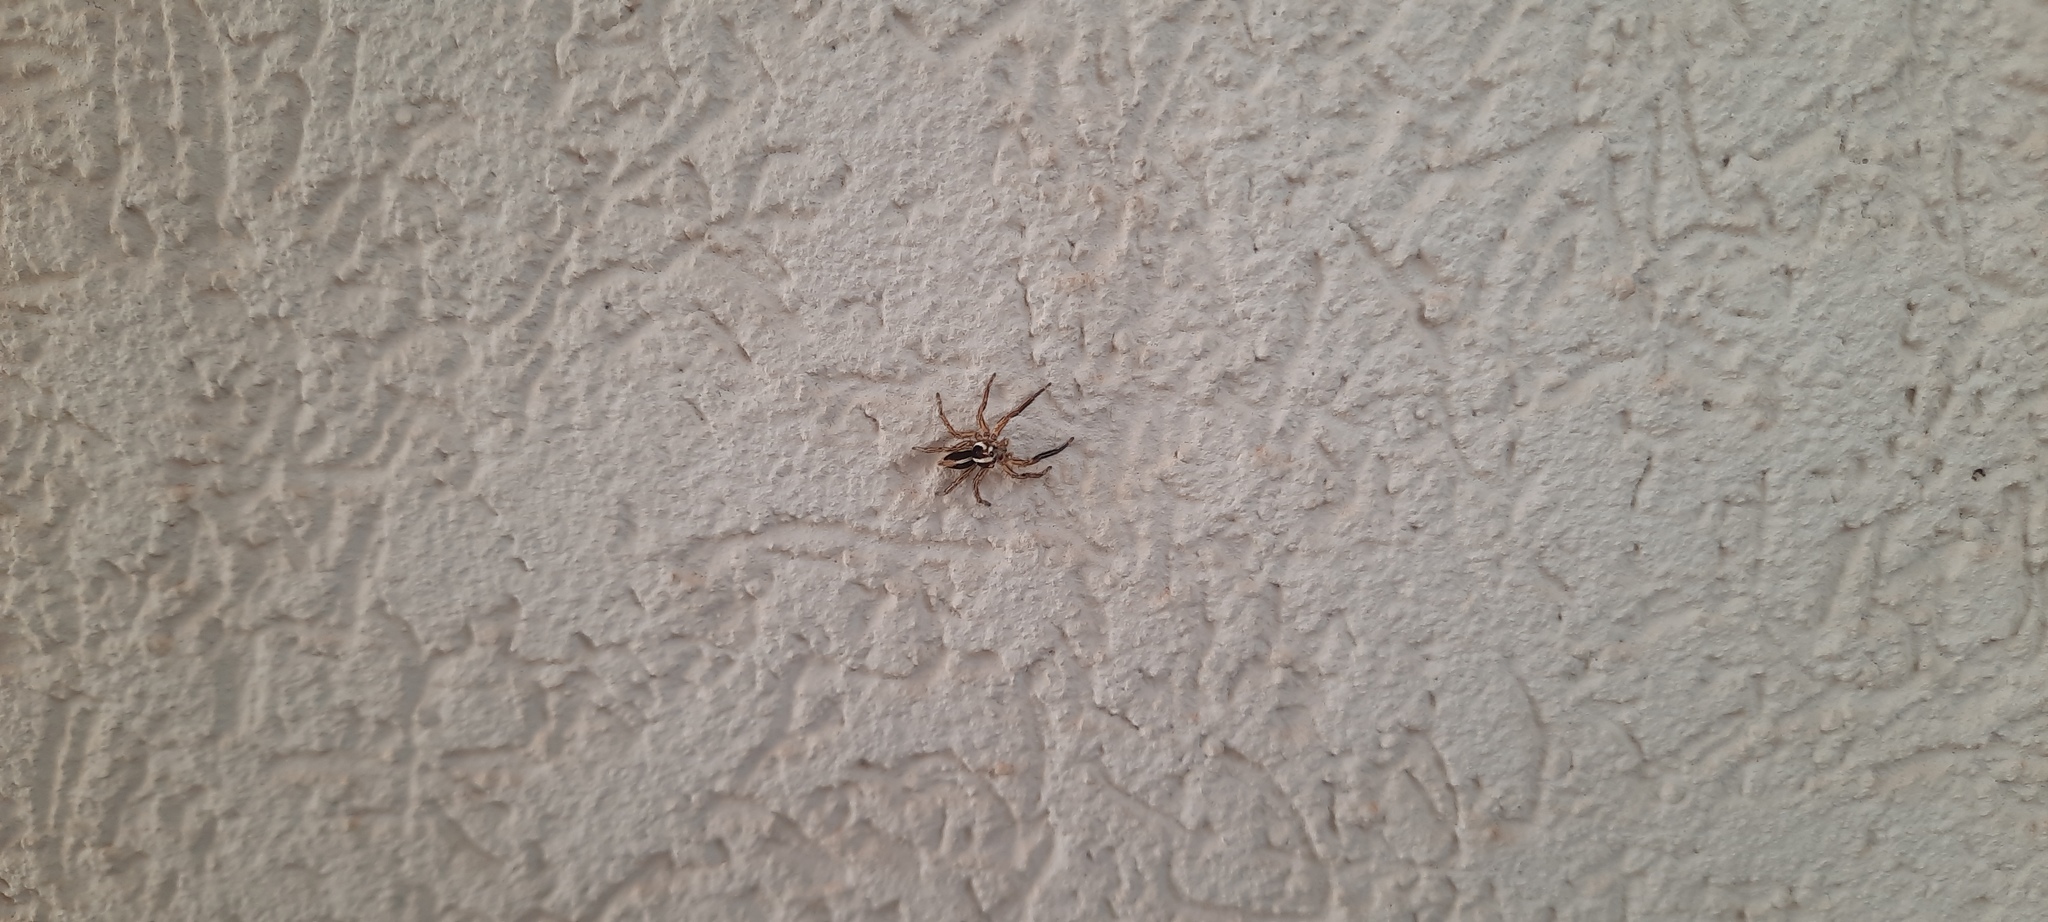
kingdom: Animalia
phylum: Arthropoda
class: Arachnida
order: Araneae
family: Salticidae
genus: Plexippus
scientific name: Plexippus paykulli
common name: Pantropical jumper
